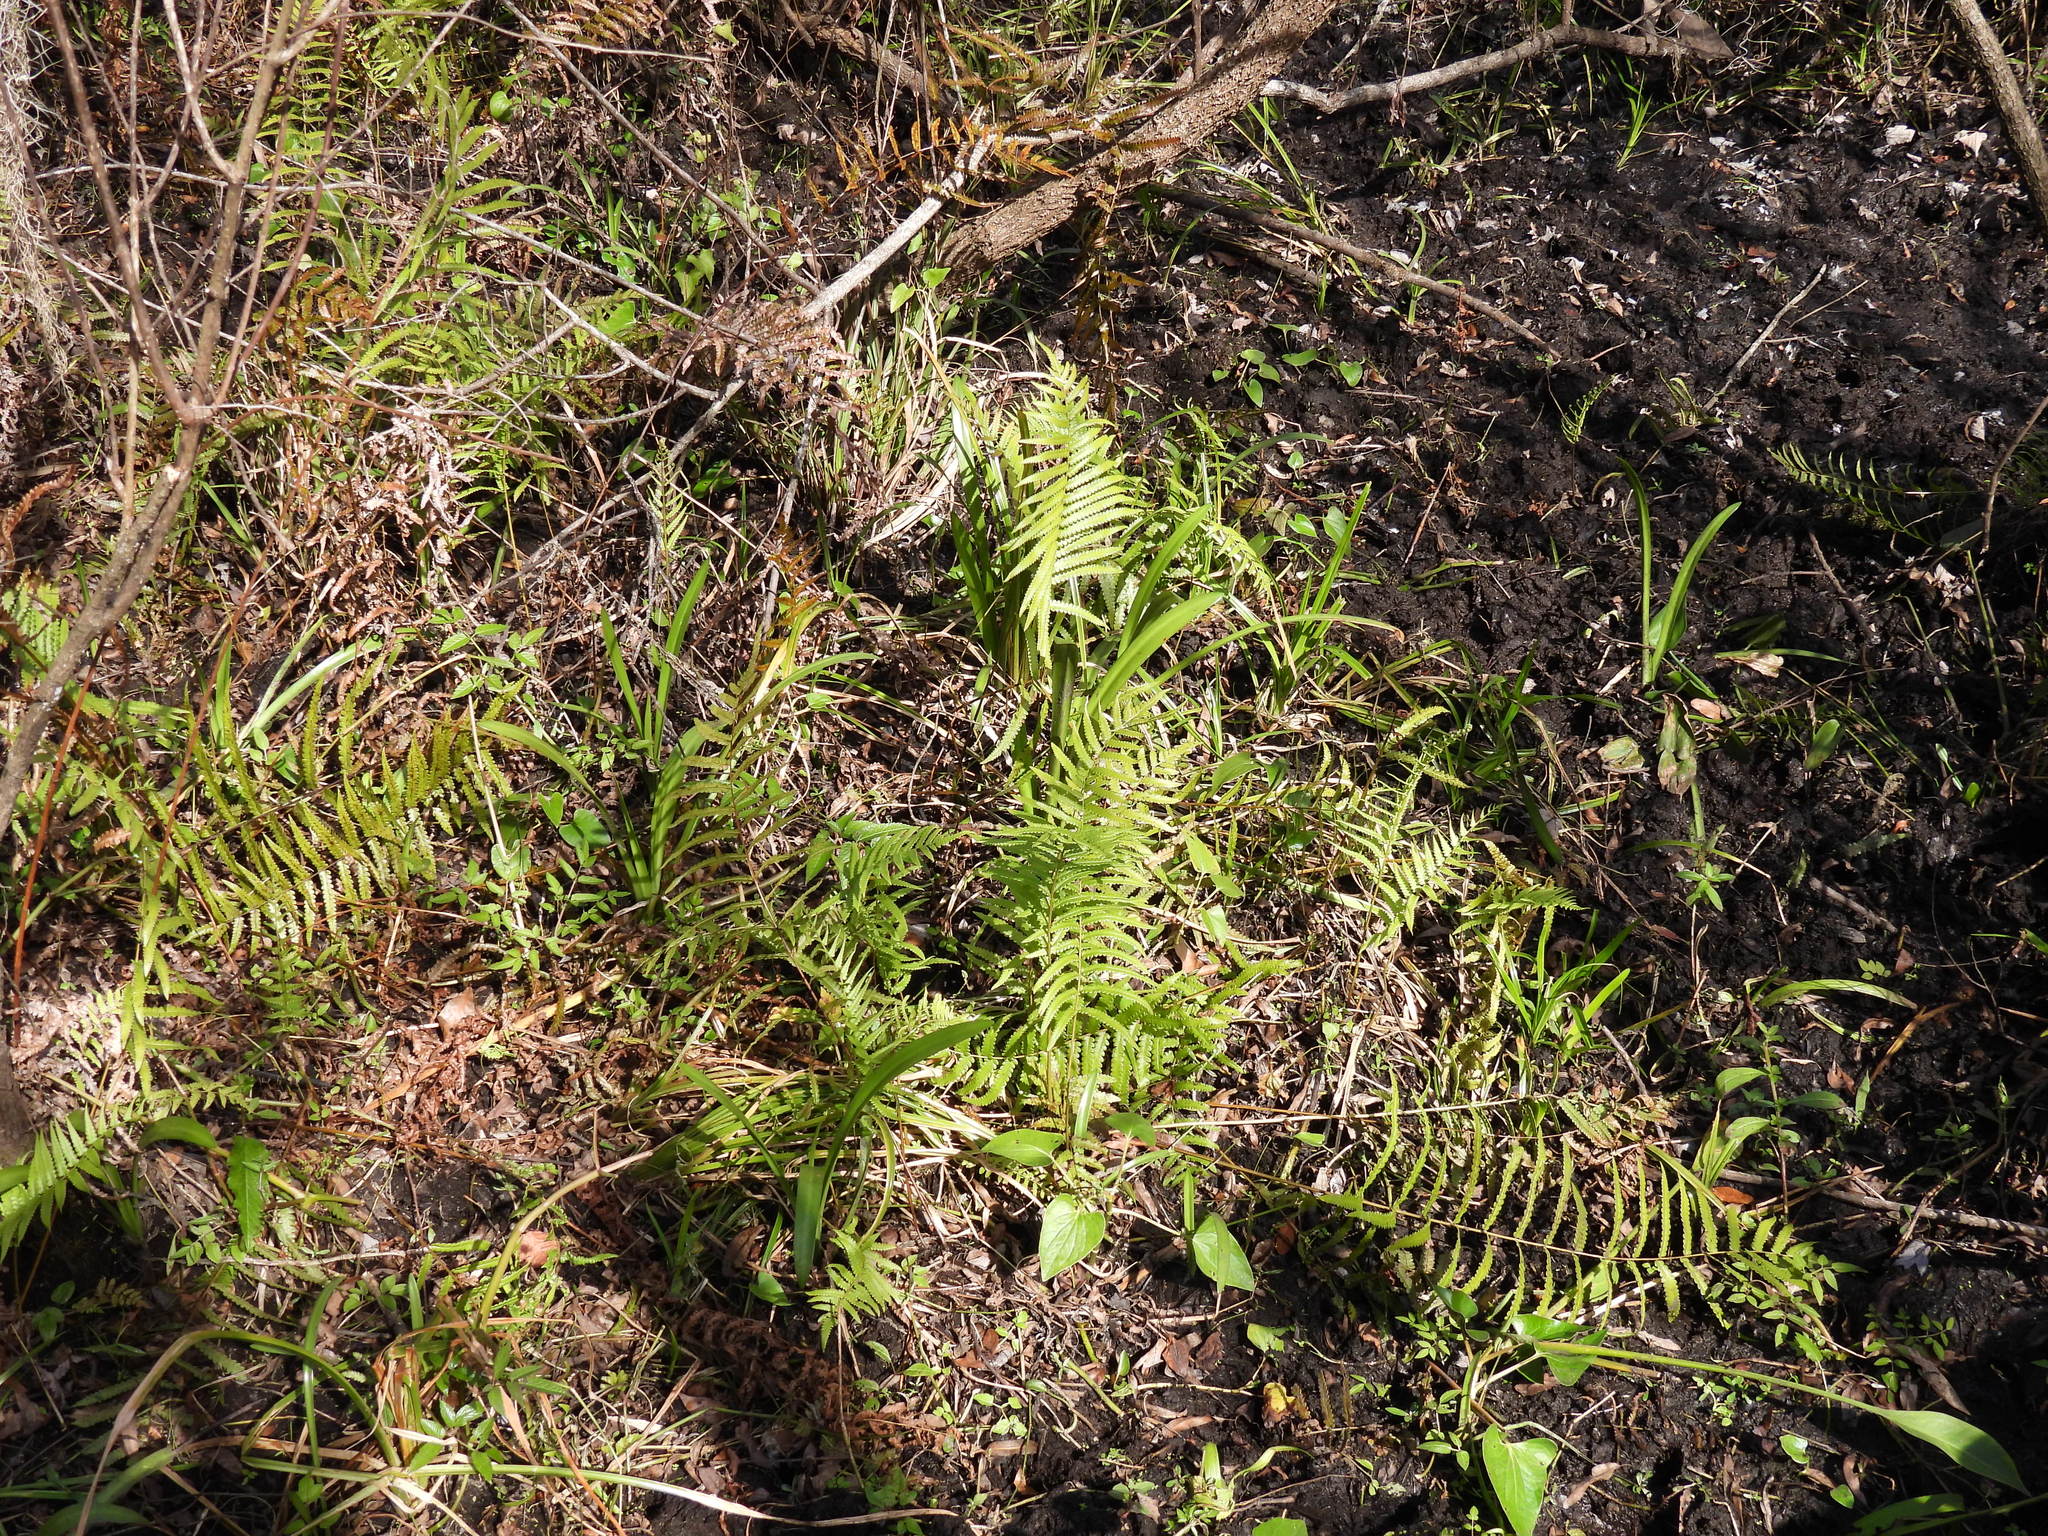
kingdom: Plantae
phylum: Tracheophyta
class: Polypodiopsida
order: Polypodiales
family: Thelypteridaceae
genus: Cyclosorus
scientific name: Cyclosorus interruptus
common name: Neke fern
